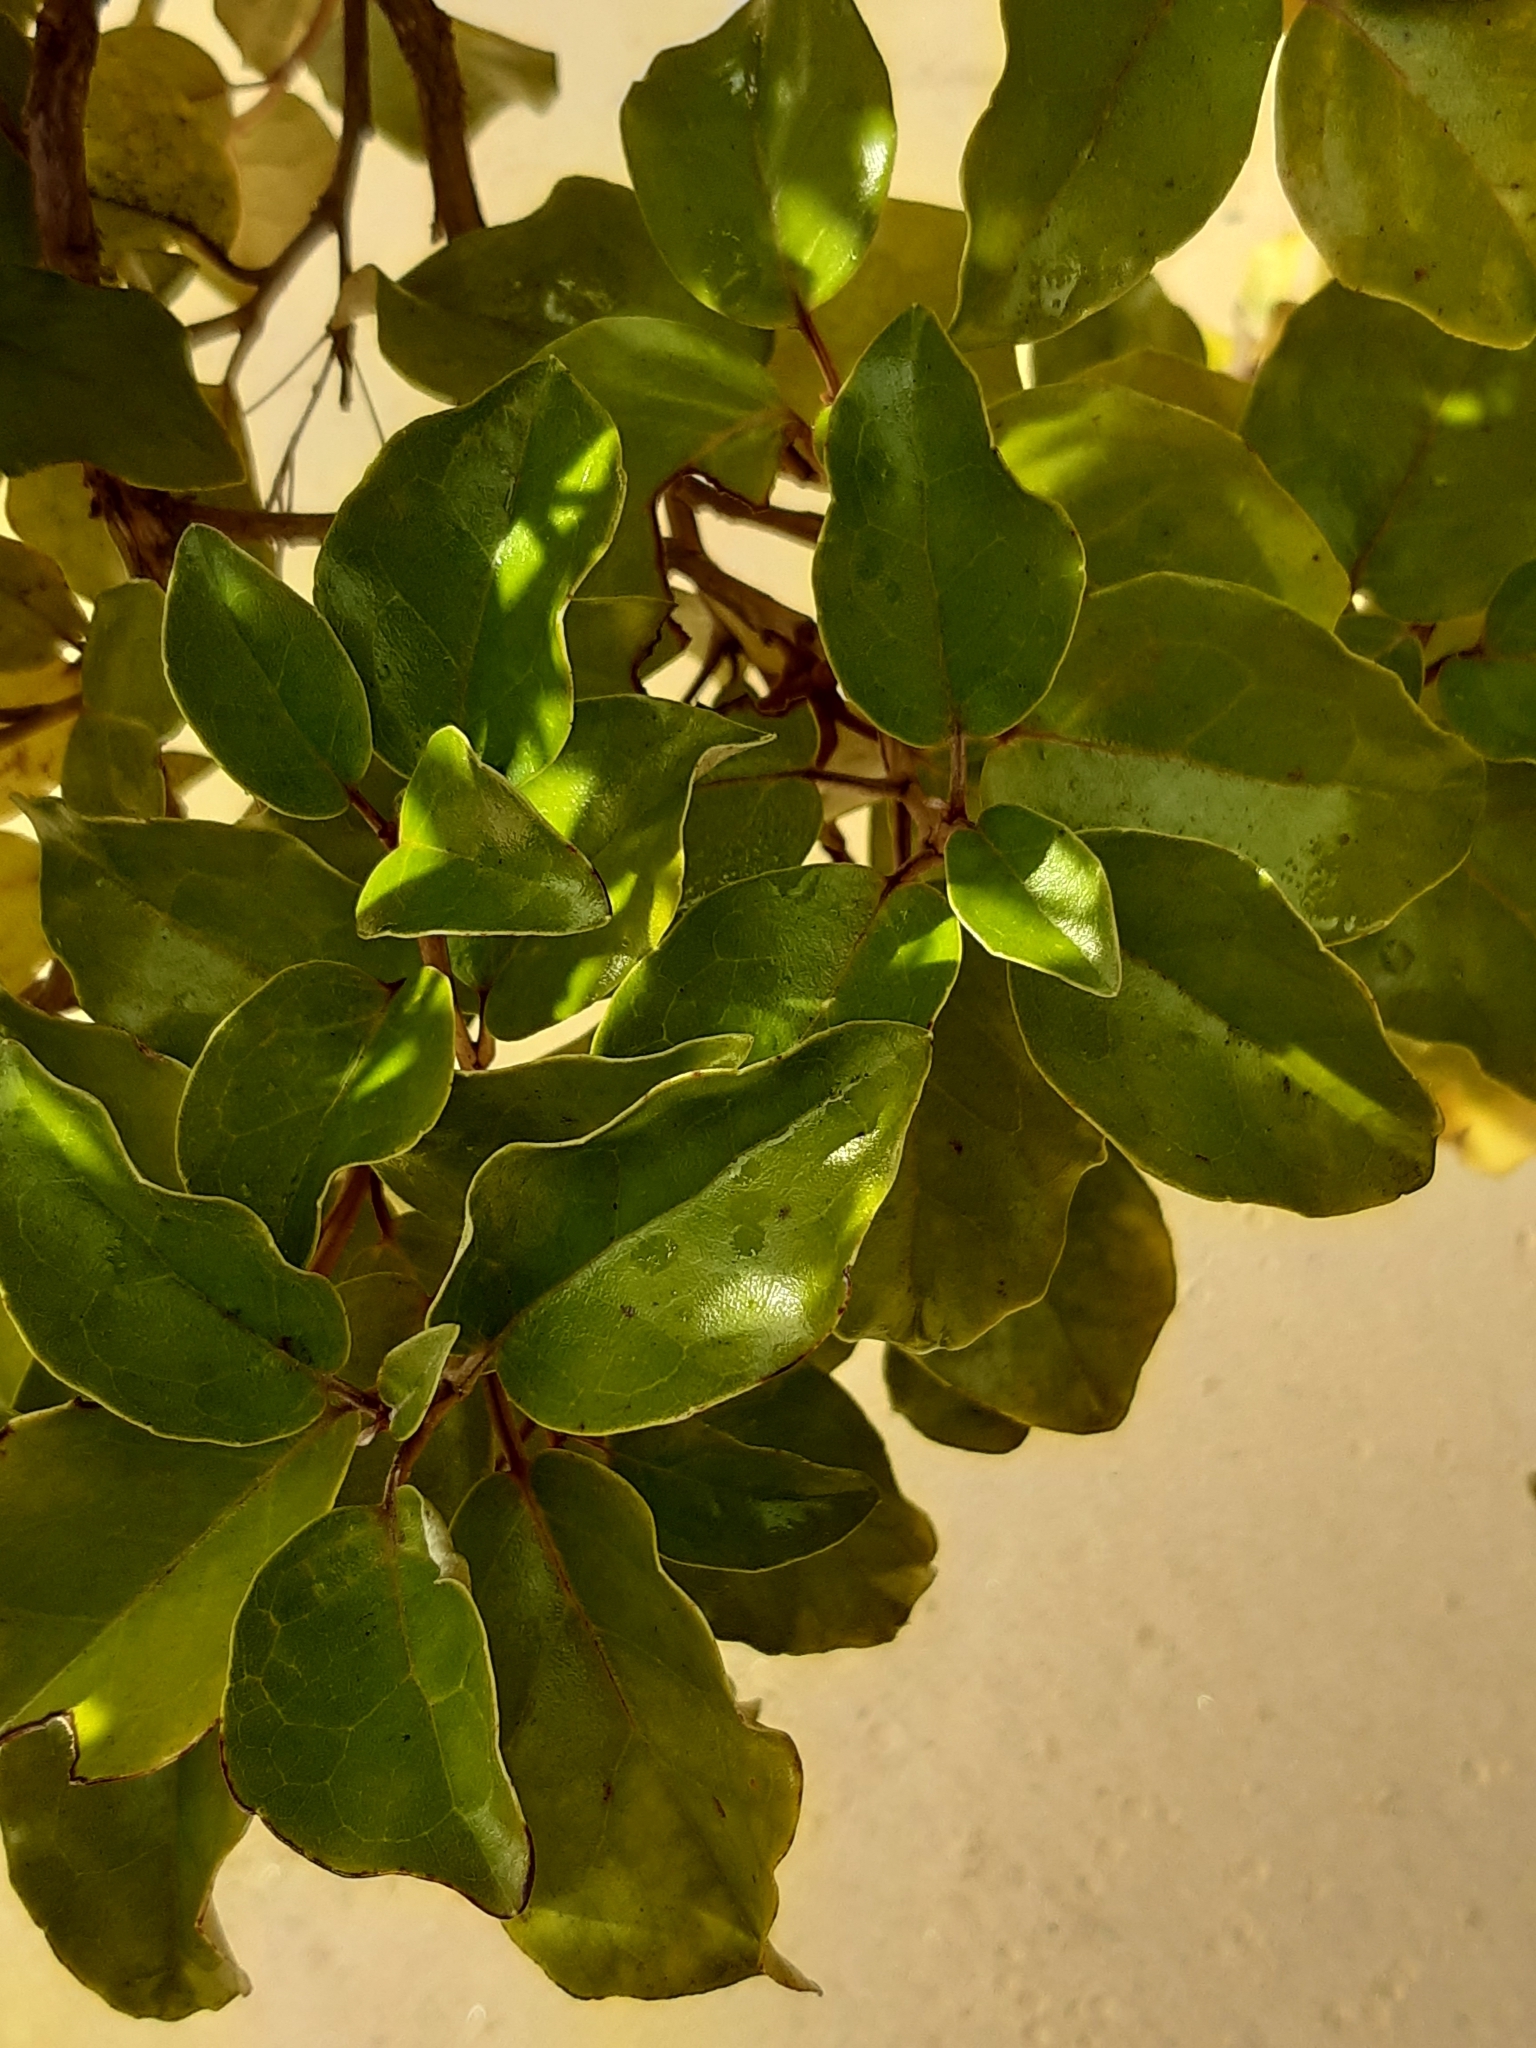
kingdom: Plantae
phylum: Tracheophyta
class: Magnoliopsida
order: Asterales
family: Asteraceae
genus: Olearia
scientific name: Olearia arborescens
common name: Glossy tree daisy
